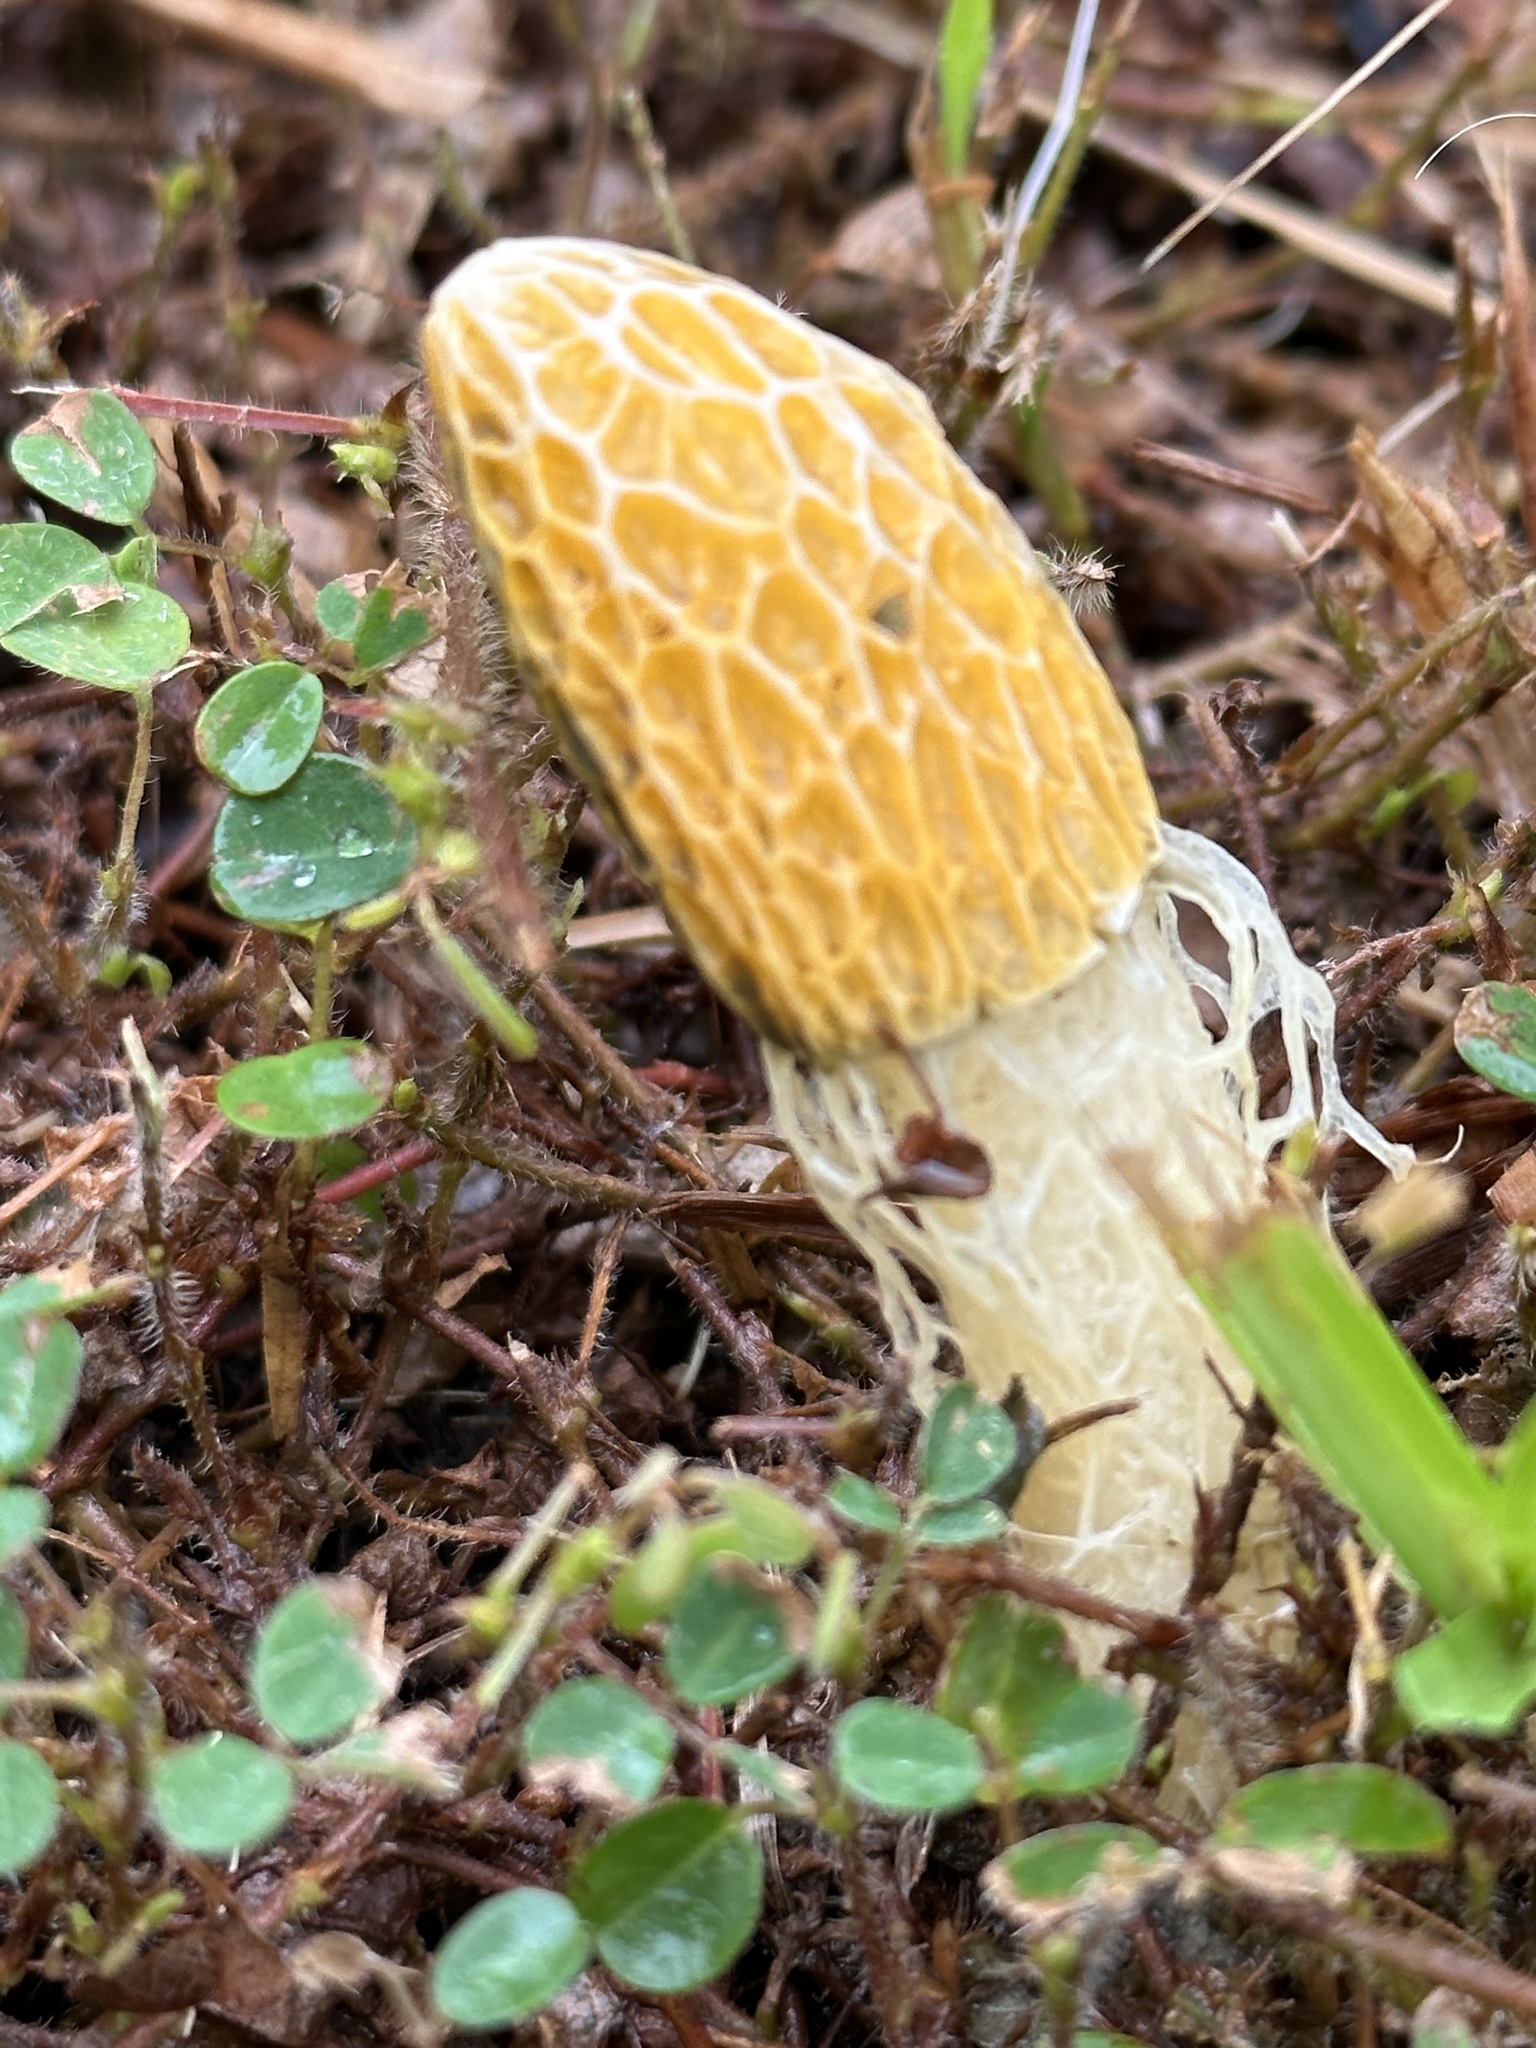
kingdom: Fungi
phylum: Basidiomycota
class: Agaricomycetes
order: Phallales
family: Phallaceae
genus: Phallus
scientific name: Phallus multicolor
